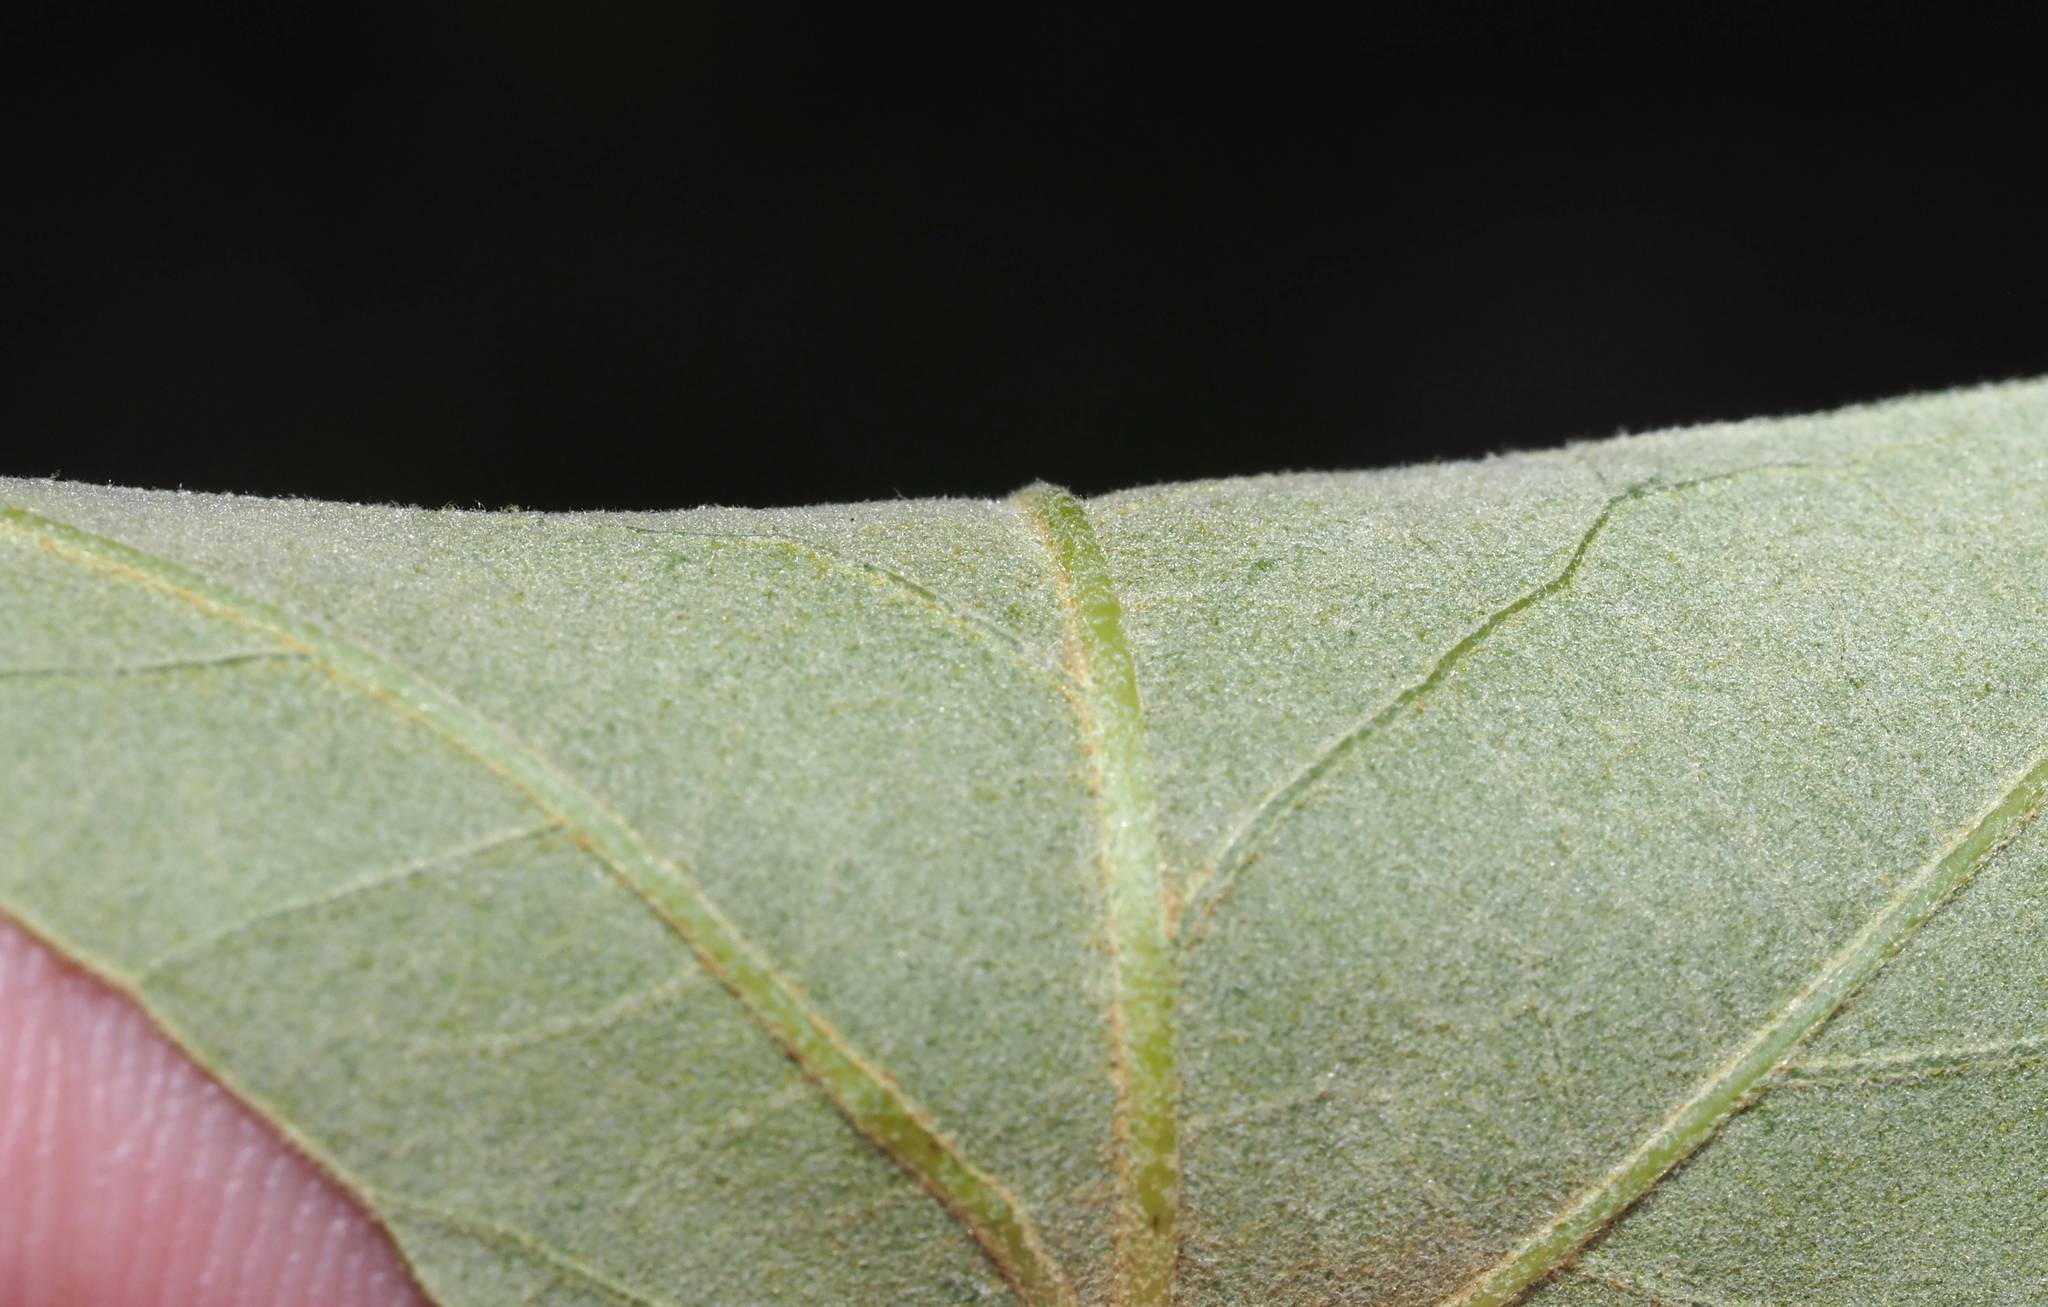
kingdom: Plantae
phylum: Tracheophyta
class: Magnoliopsida
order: Fagales
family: Fagaceae
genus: Quercus
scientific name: Quercus falcata
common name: Southern red oak
